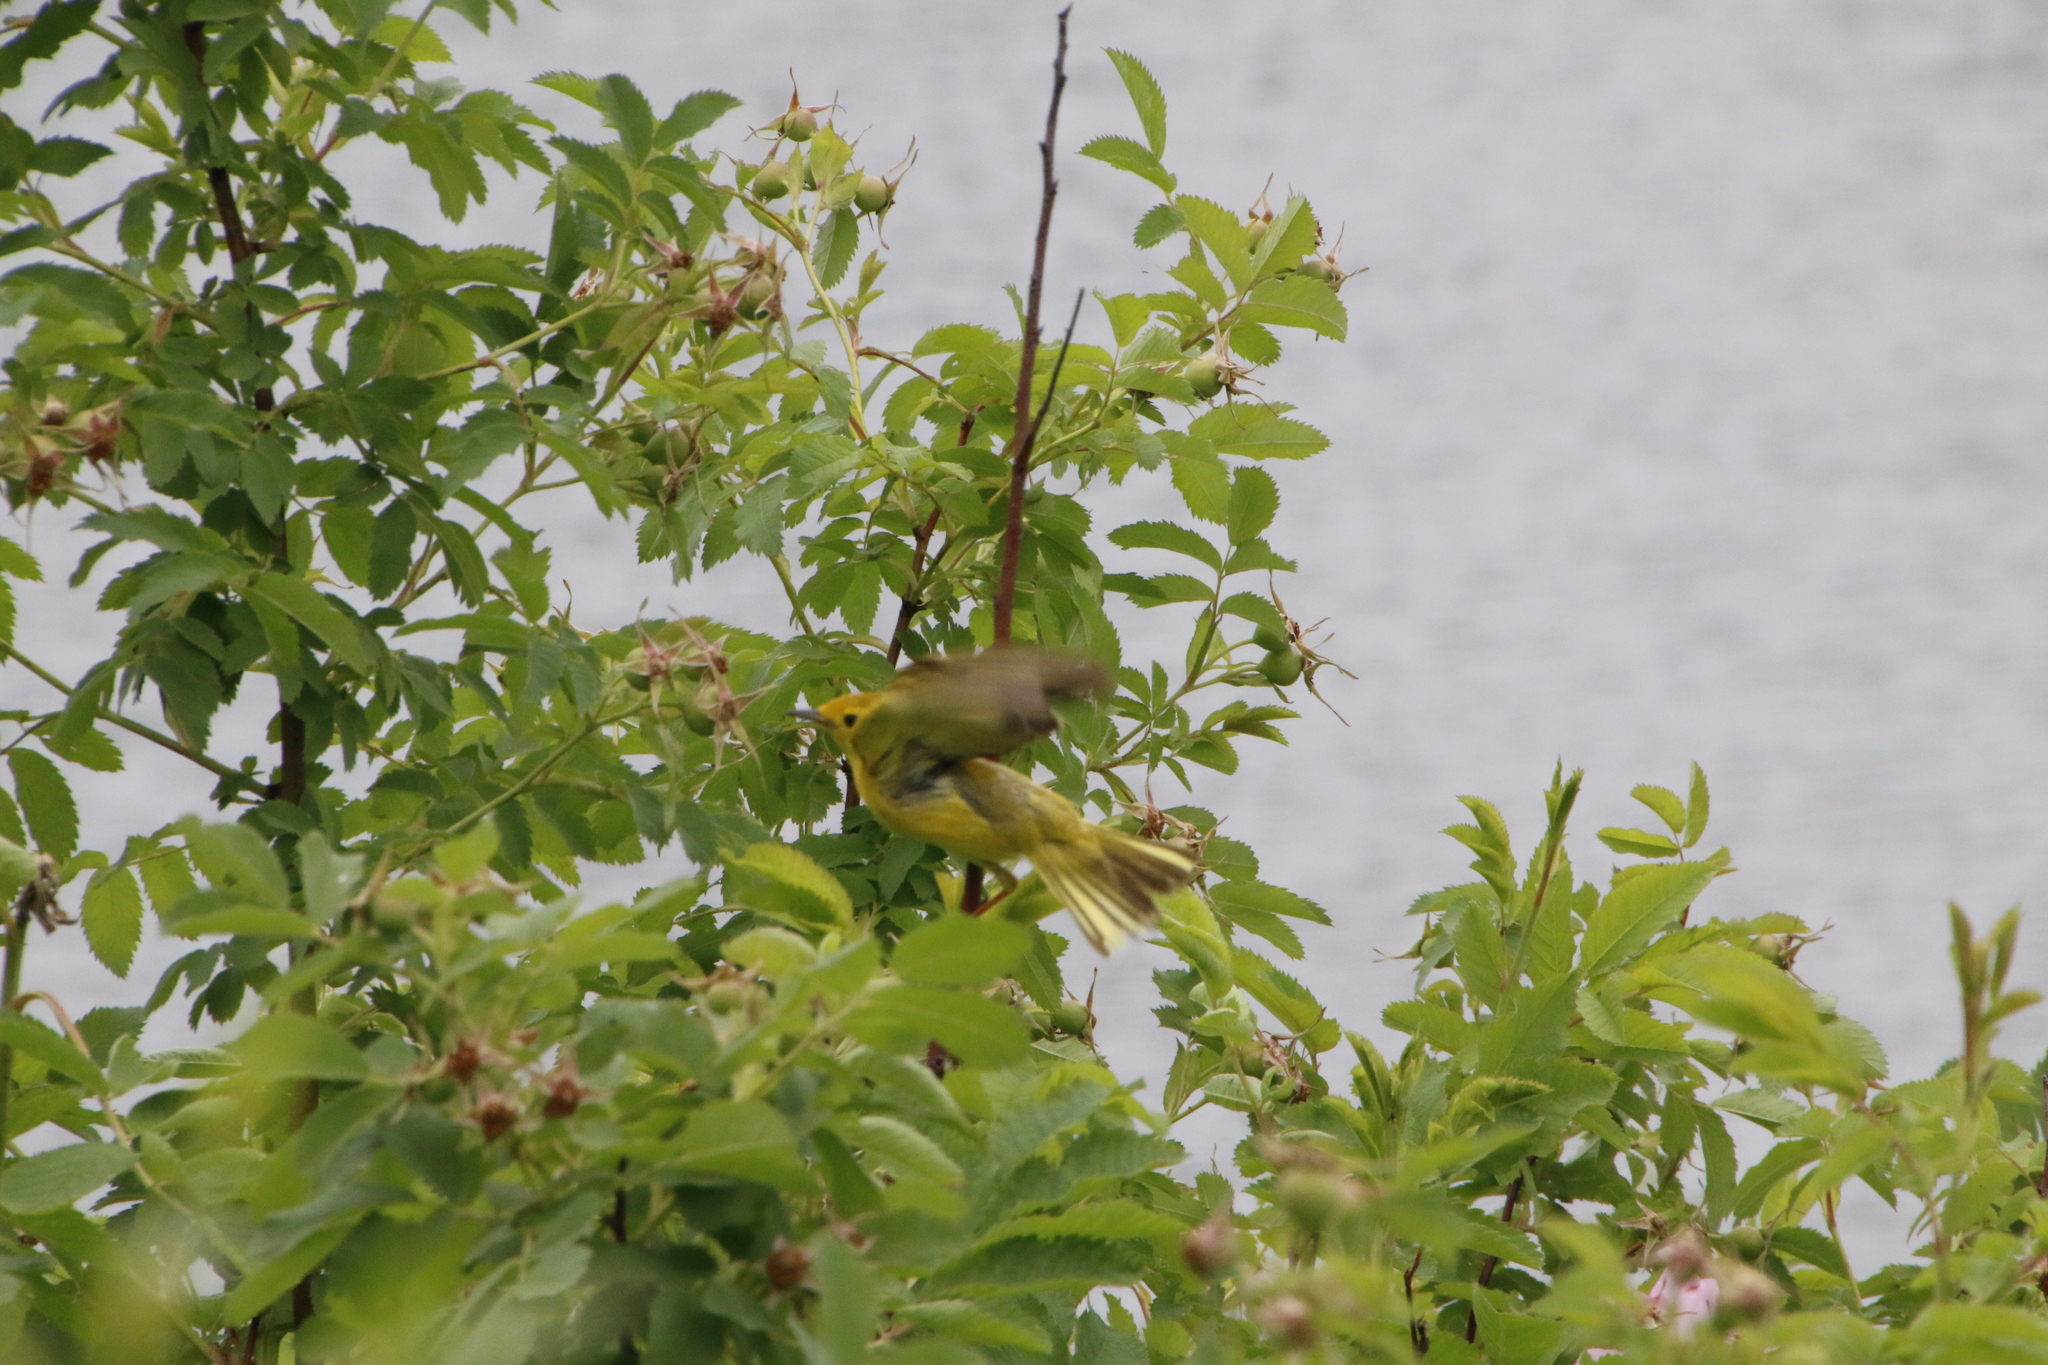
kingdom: Animalia
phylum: Chordata
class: Aves
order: Passeriformes
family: Parulidae
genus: Setophaga
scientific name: Setophaga petechia
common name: Yellow warbler
